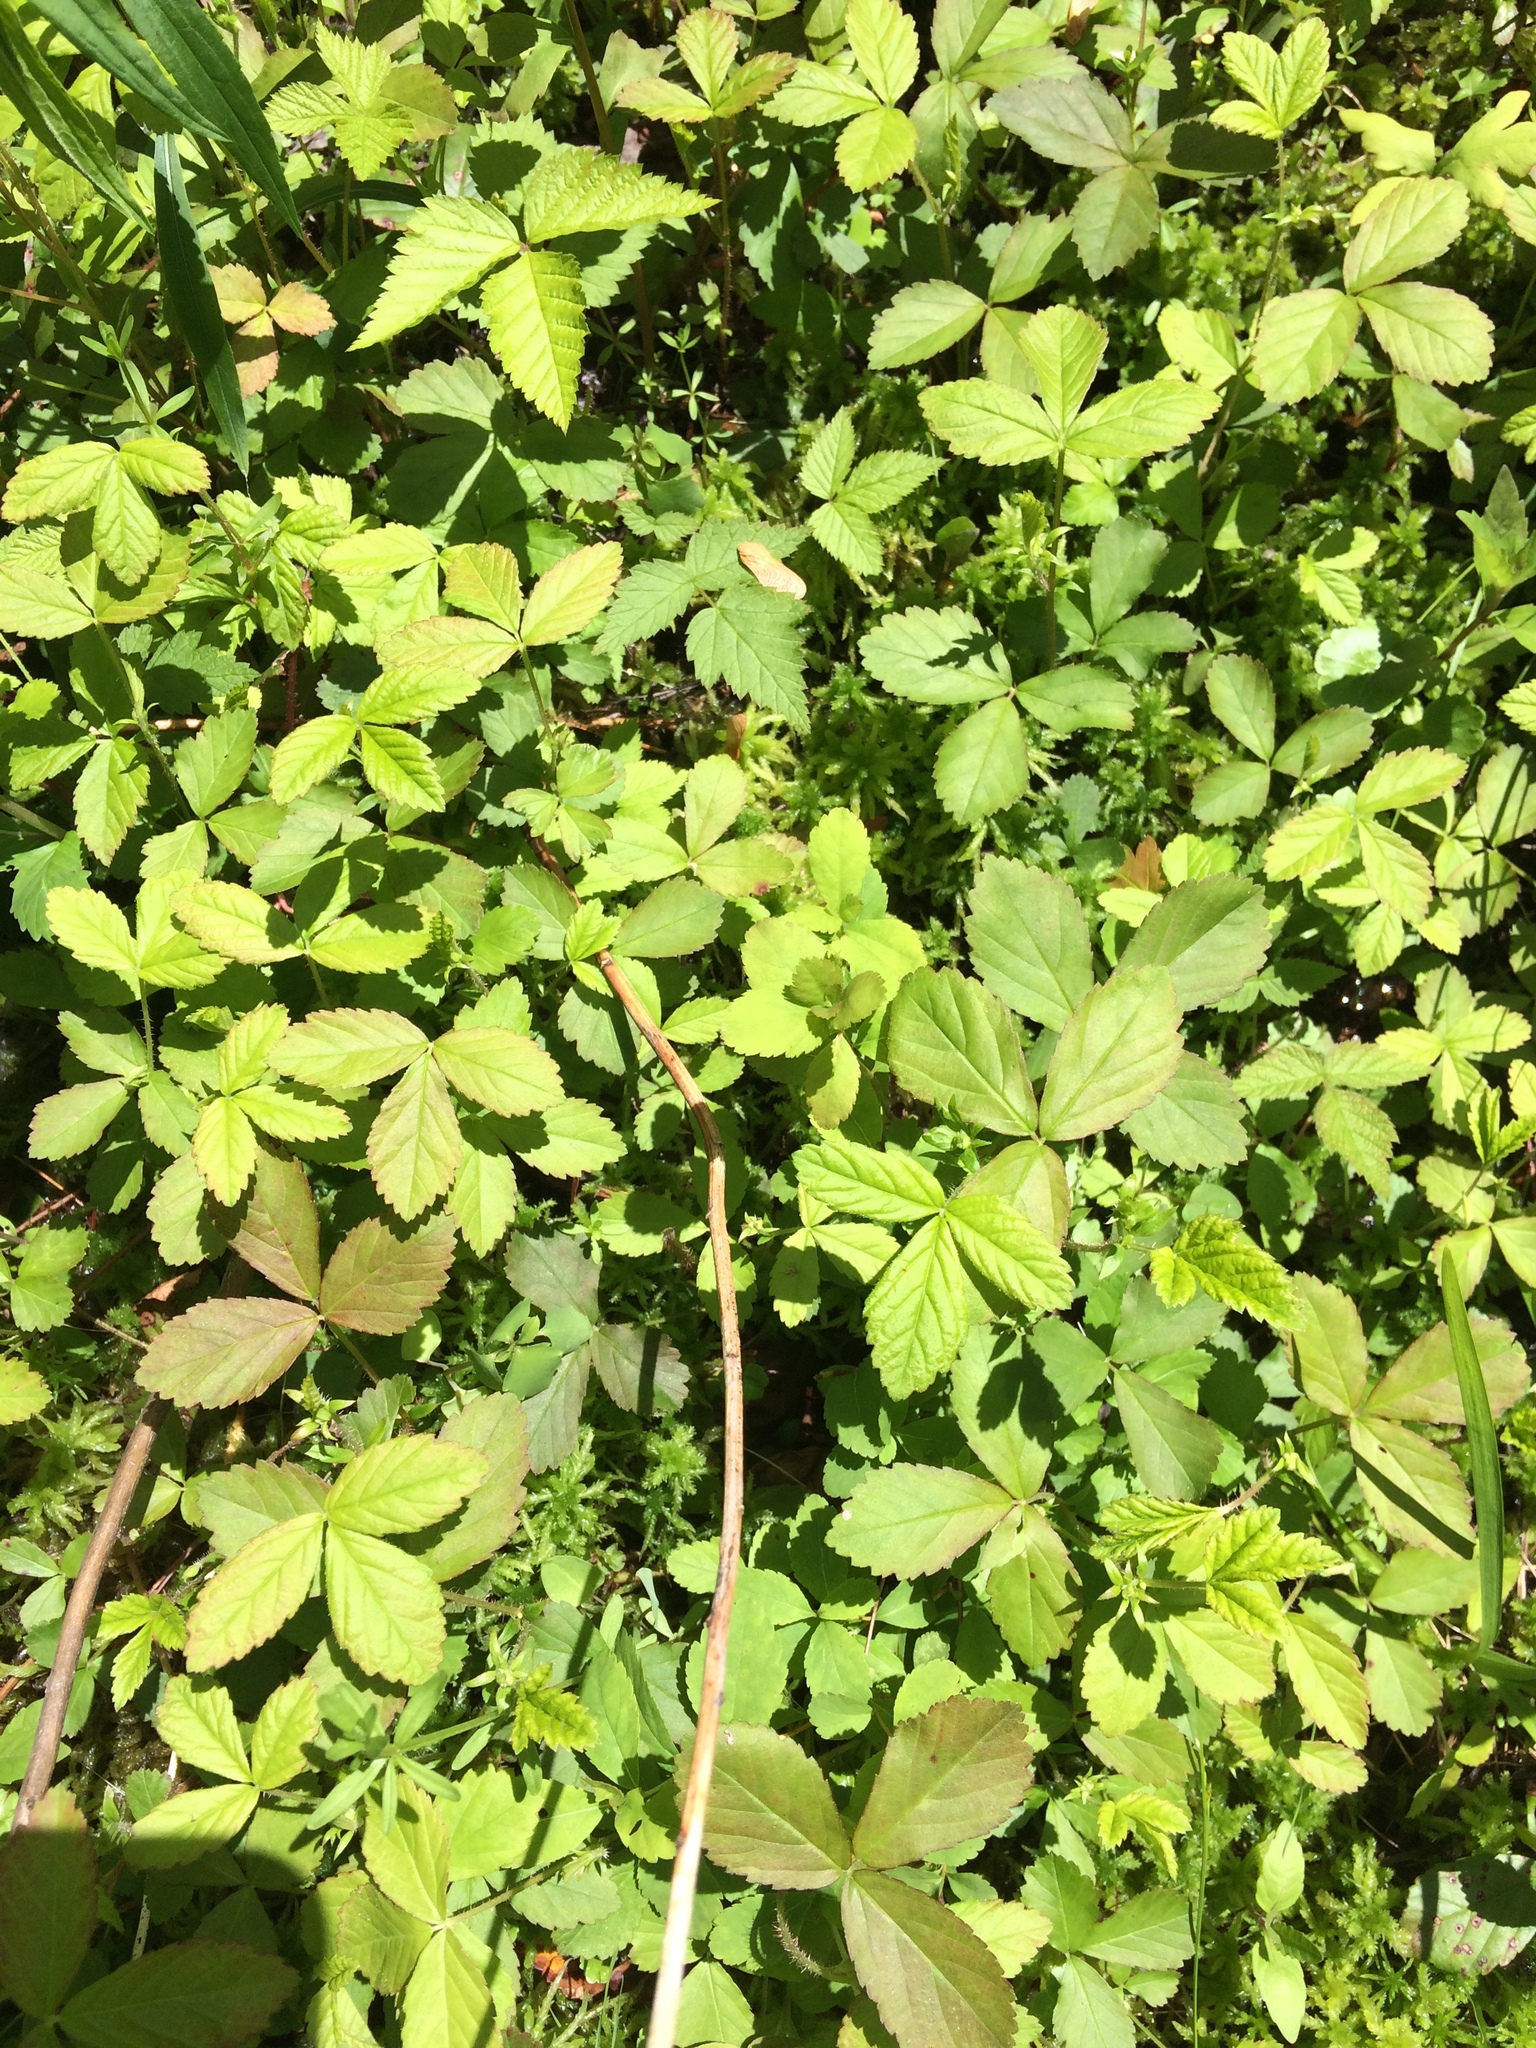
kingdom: Plantae
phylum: Tracheophyta
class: Magnoliopsida
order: Rosales
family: Rosaceae
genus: Rubus
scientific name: Rubus pubescens
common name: Dwarf raspberry
